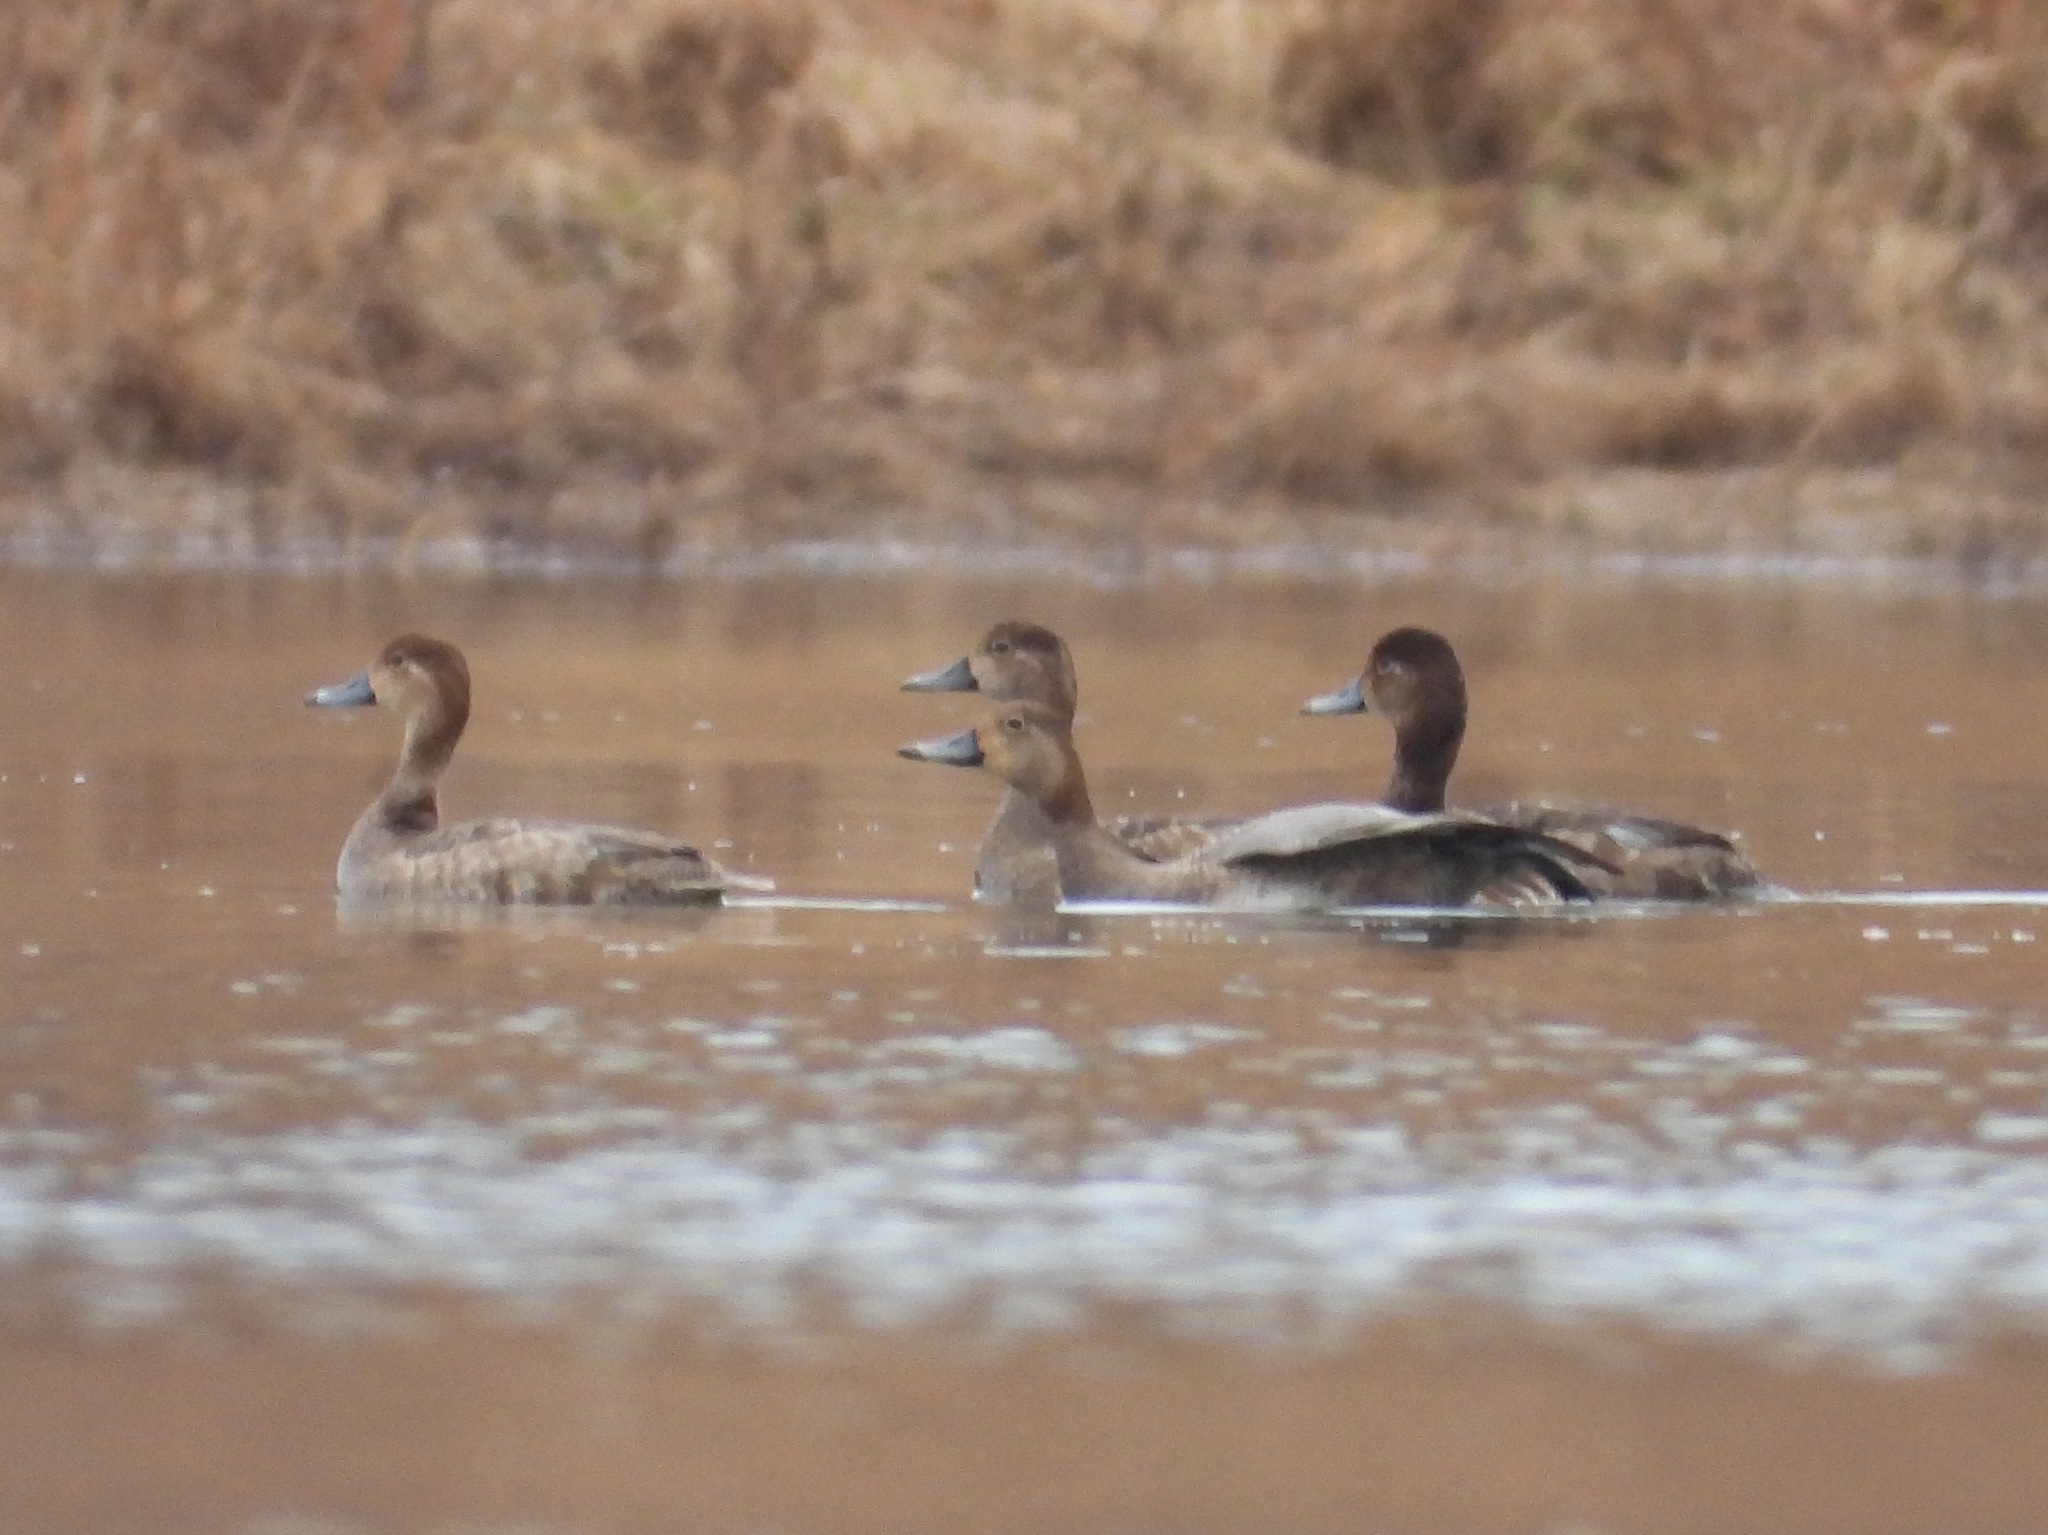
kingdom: Animalia
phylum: Chordata
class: Aves
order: Anseriformes
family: Anatidae
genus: Aythya
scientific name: Aythya americana
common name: Redhead
